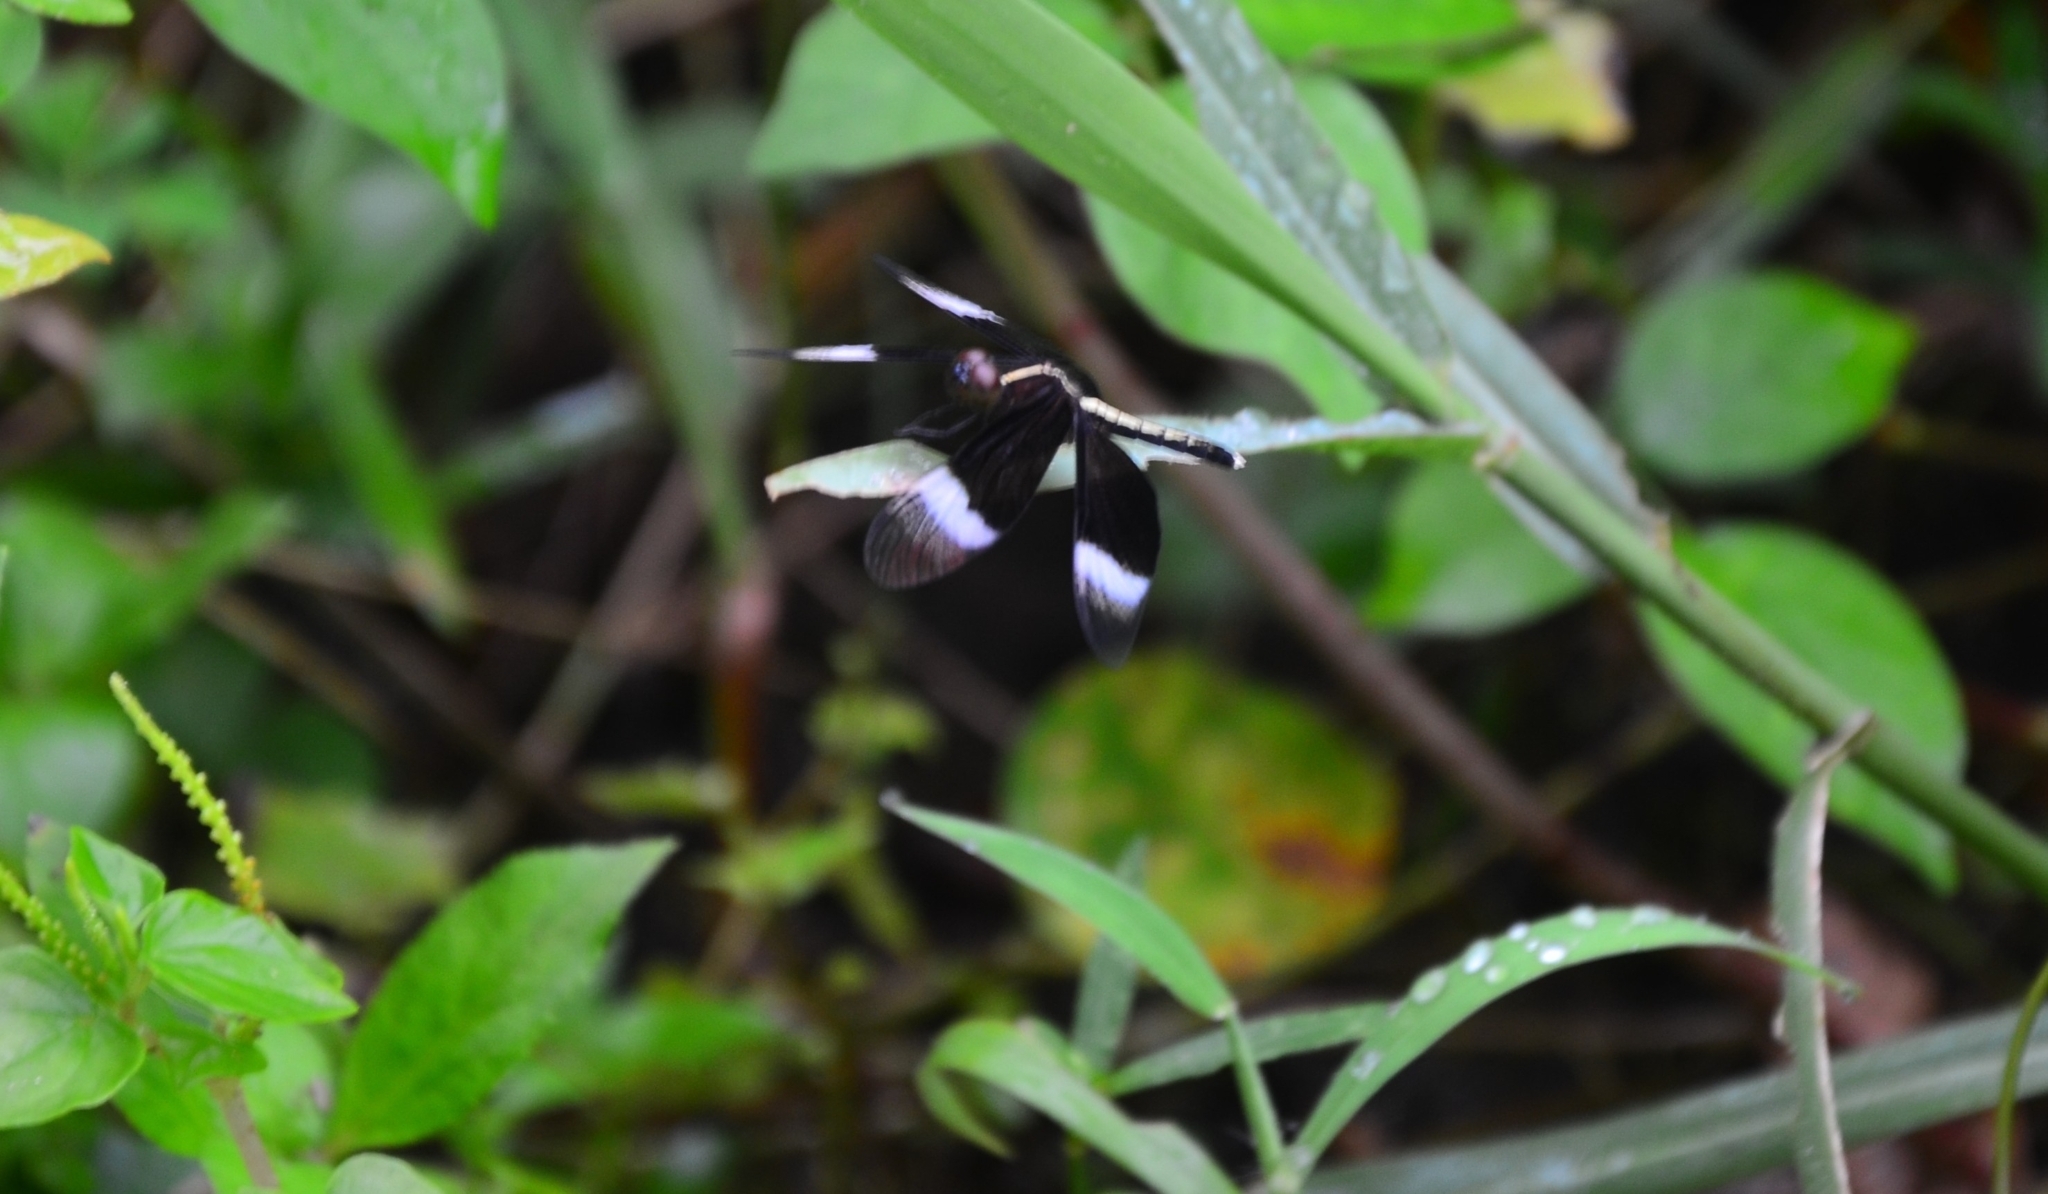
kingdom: Animalia
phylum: Arthropoda
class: Insecta
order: Odonata
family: Libellulidae
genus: Neurothemis
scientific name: Neurothemis tullia
